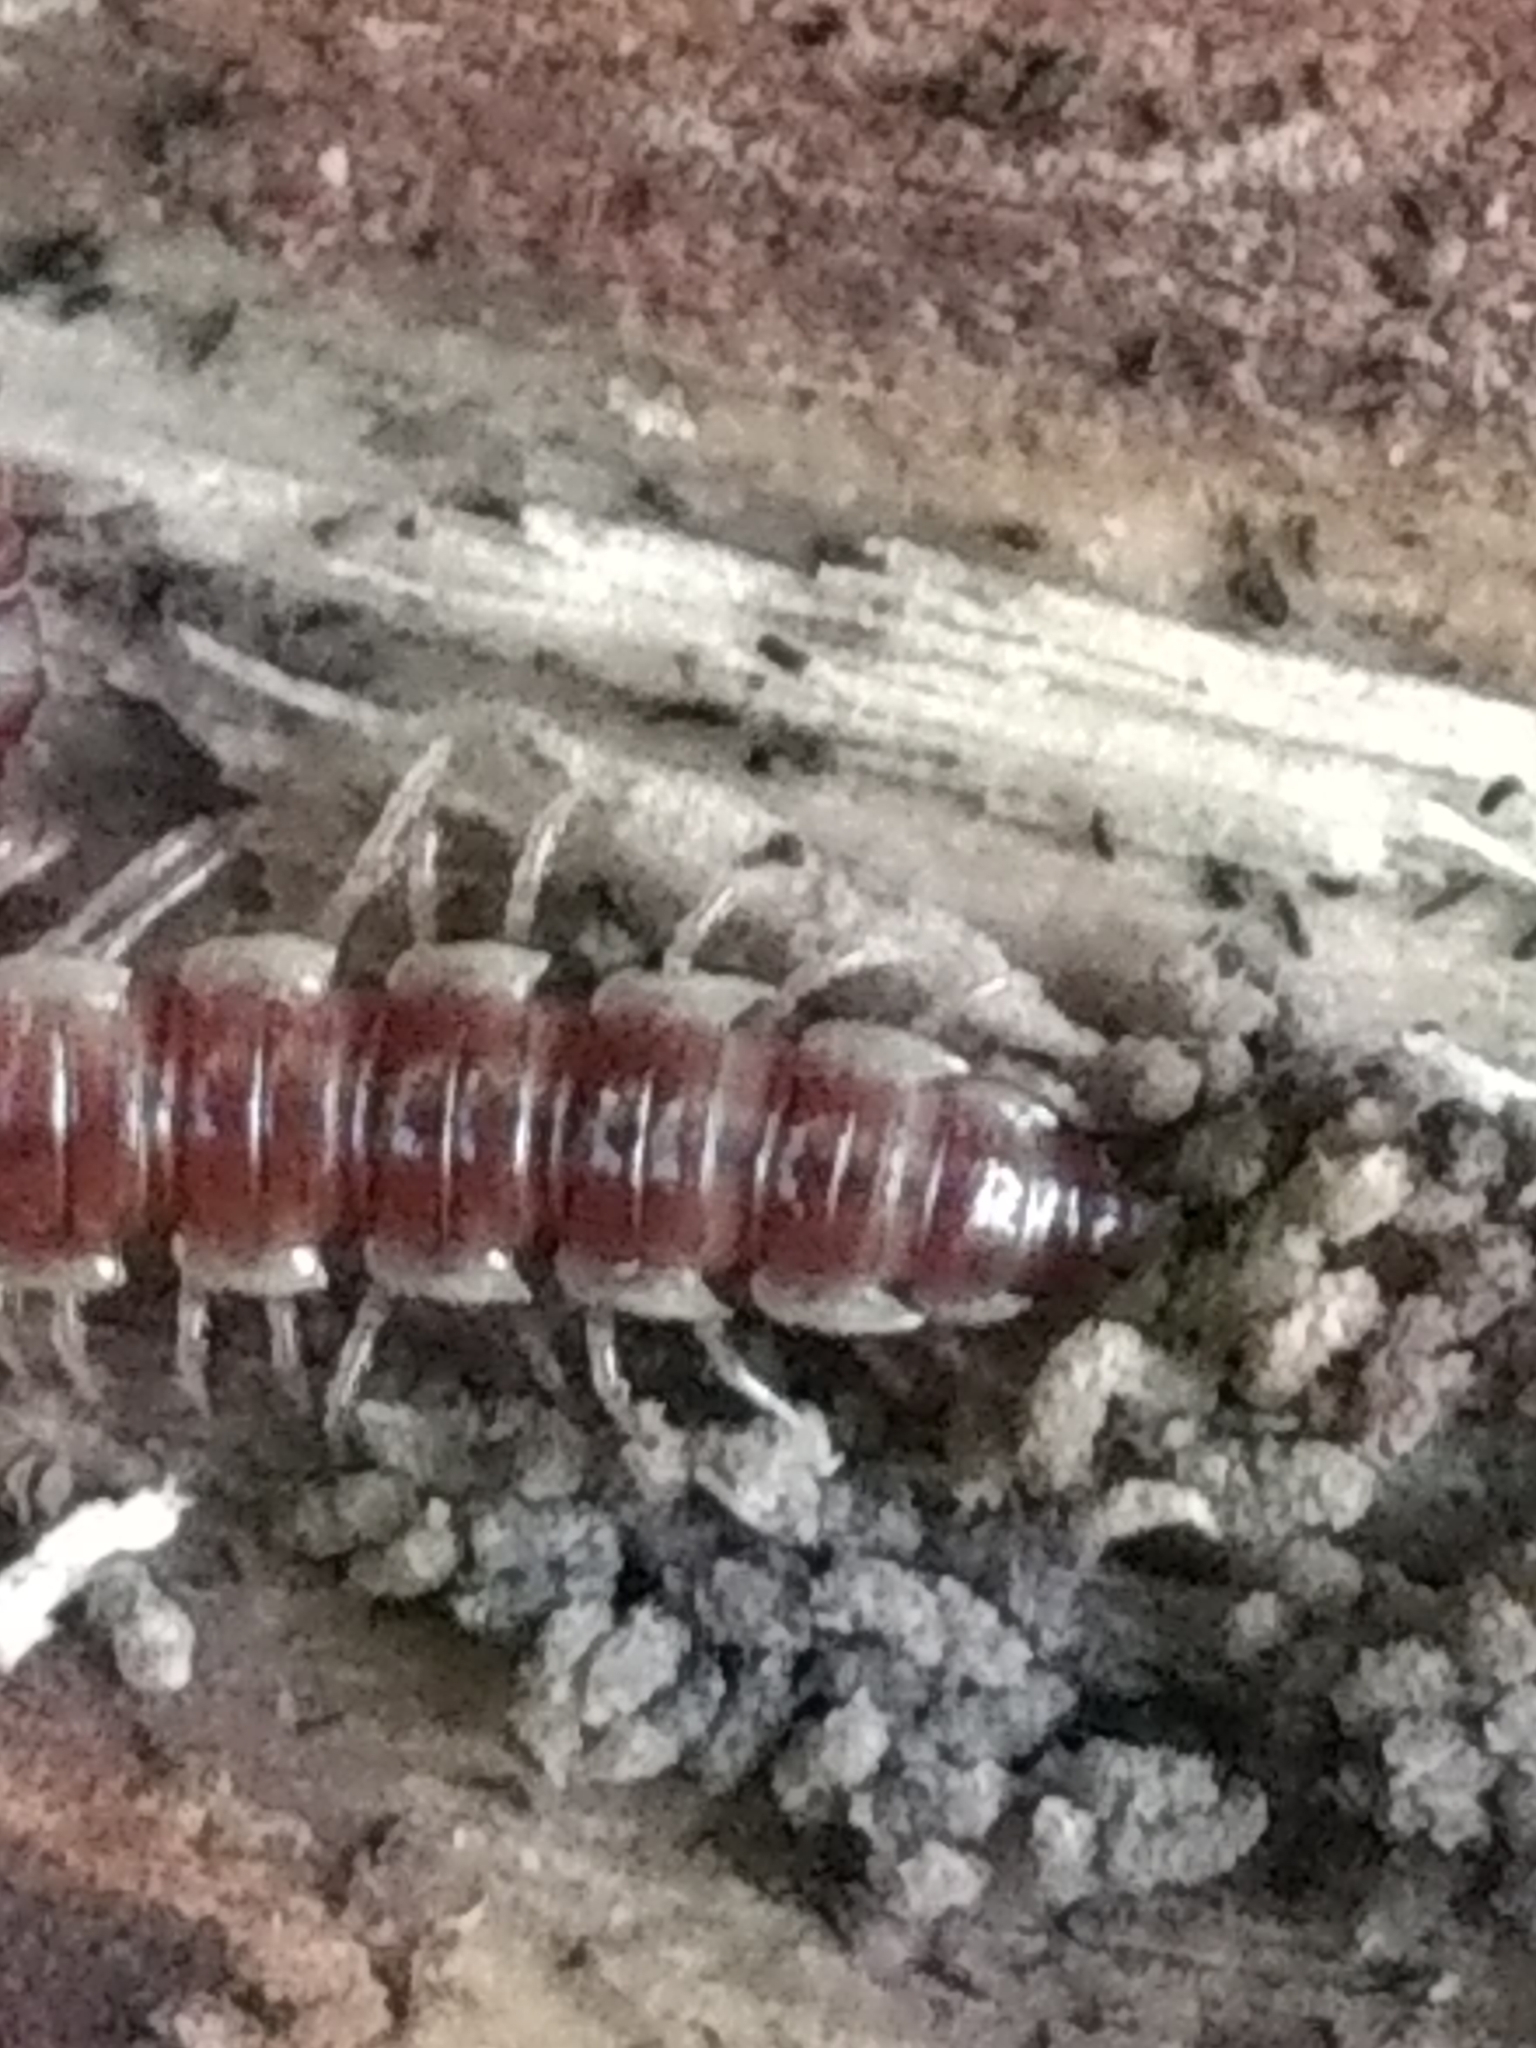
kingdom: Animalia
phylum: Arthropoda
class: Diplopoda
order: Polydesmida
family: Paradoxosomatidae
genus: Oxidus
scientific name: Oxidus gracilis
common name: Greenhouse millipede
